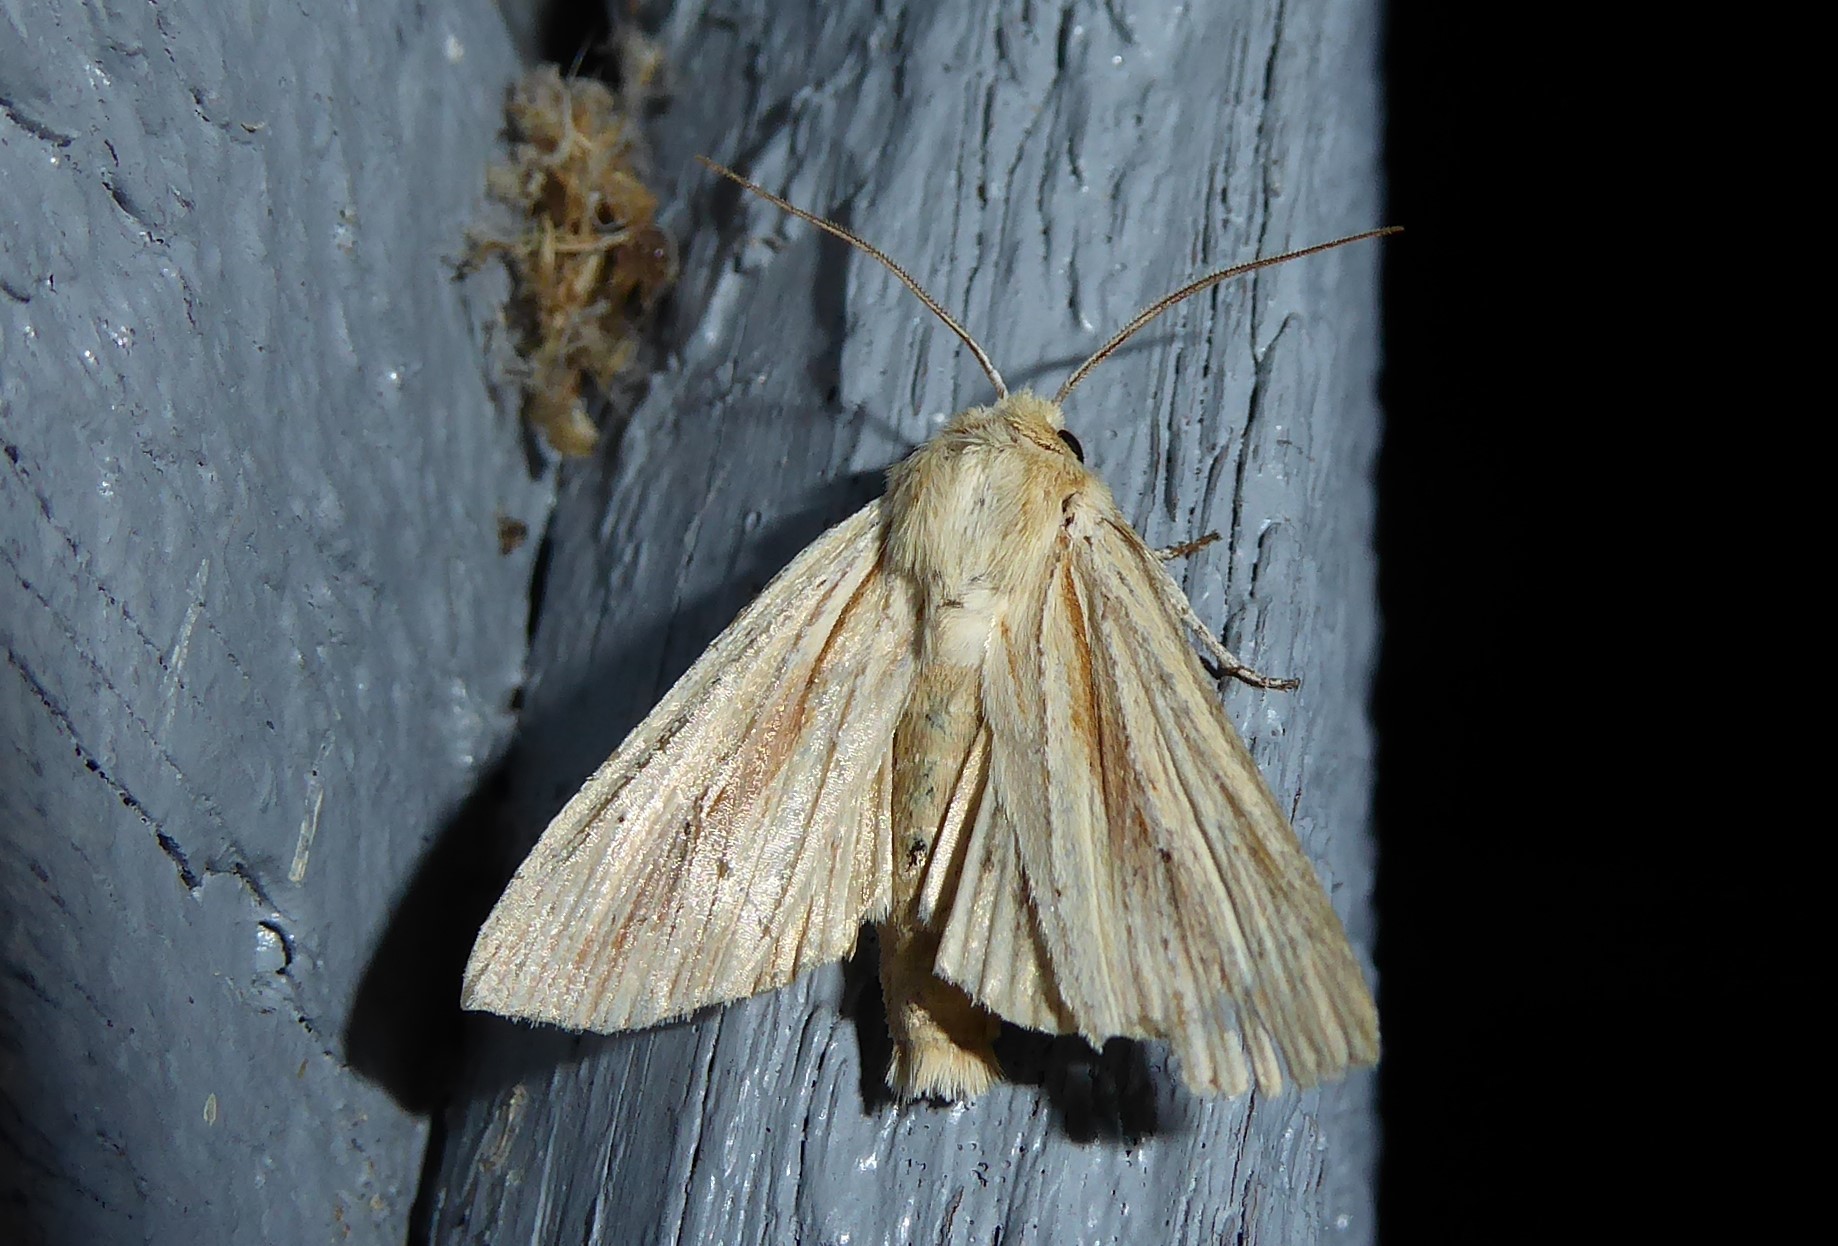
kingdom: Animalia
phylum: Arthropoda
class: Insecta
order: Lepidoptera
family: Noctuidae
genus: Ichneutica
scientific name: Ichneutica semivittata
